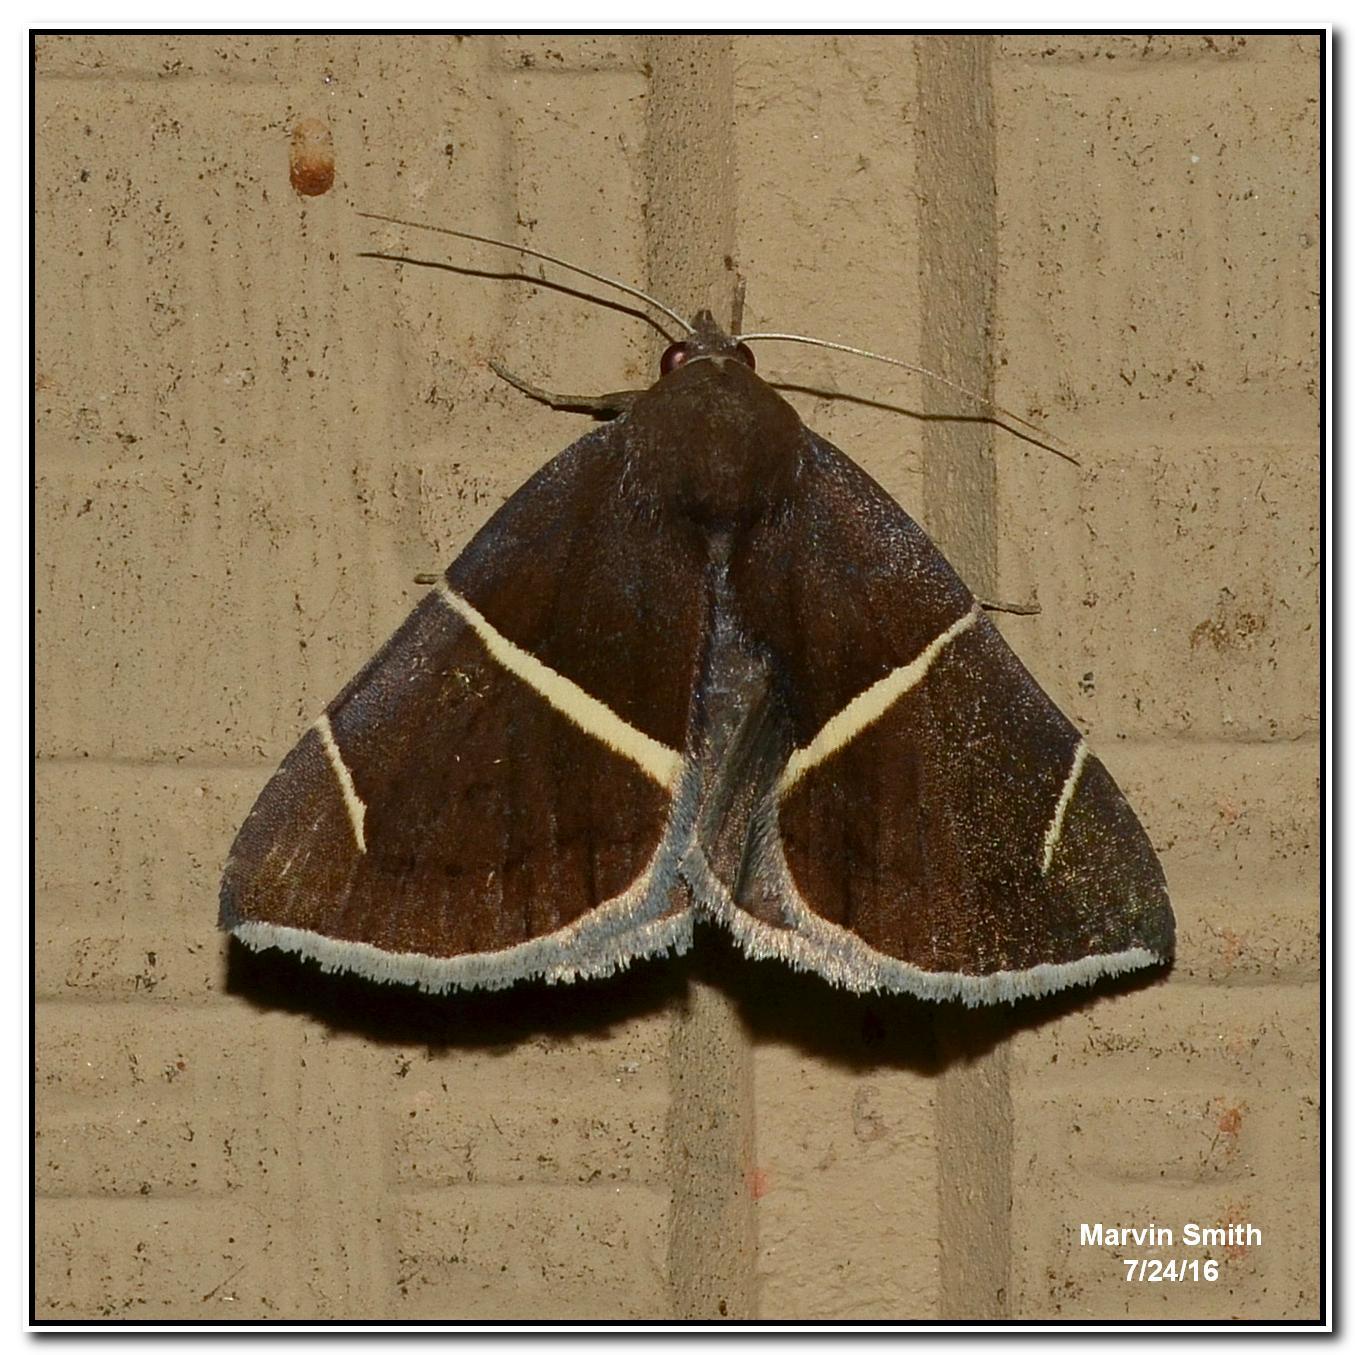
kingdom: Animalia
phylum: Arthropoda
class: Insecta
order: Lepidoptera
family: Erebidae
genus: Argyrostrotis
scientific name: Argyrostrotis anilis
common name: Short-lined chocolate
